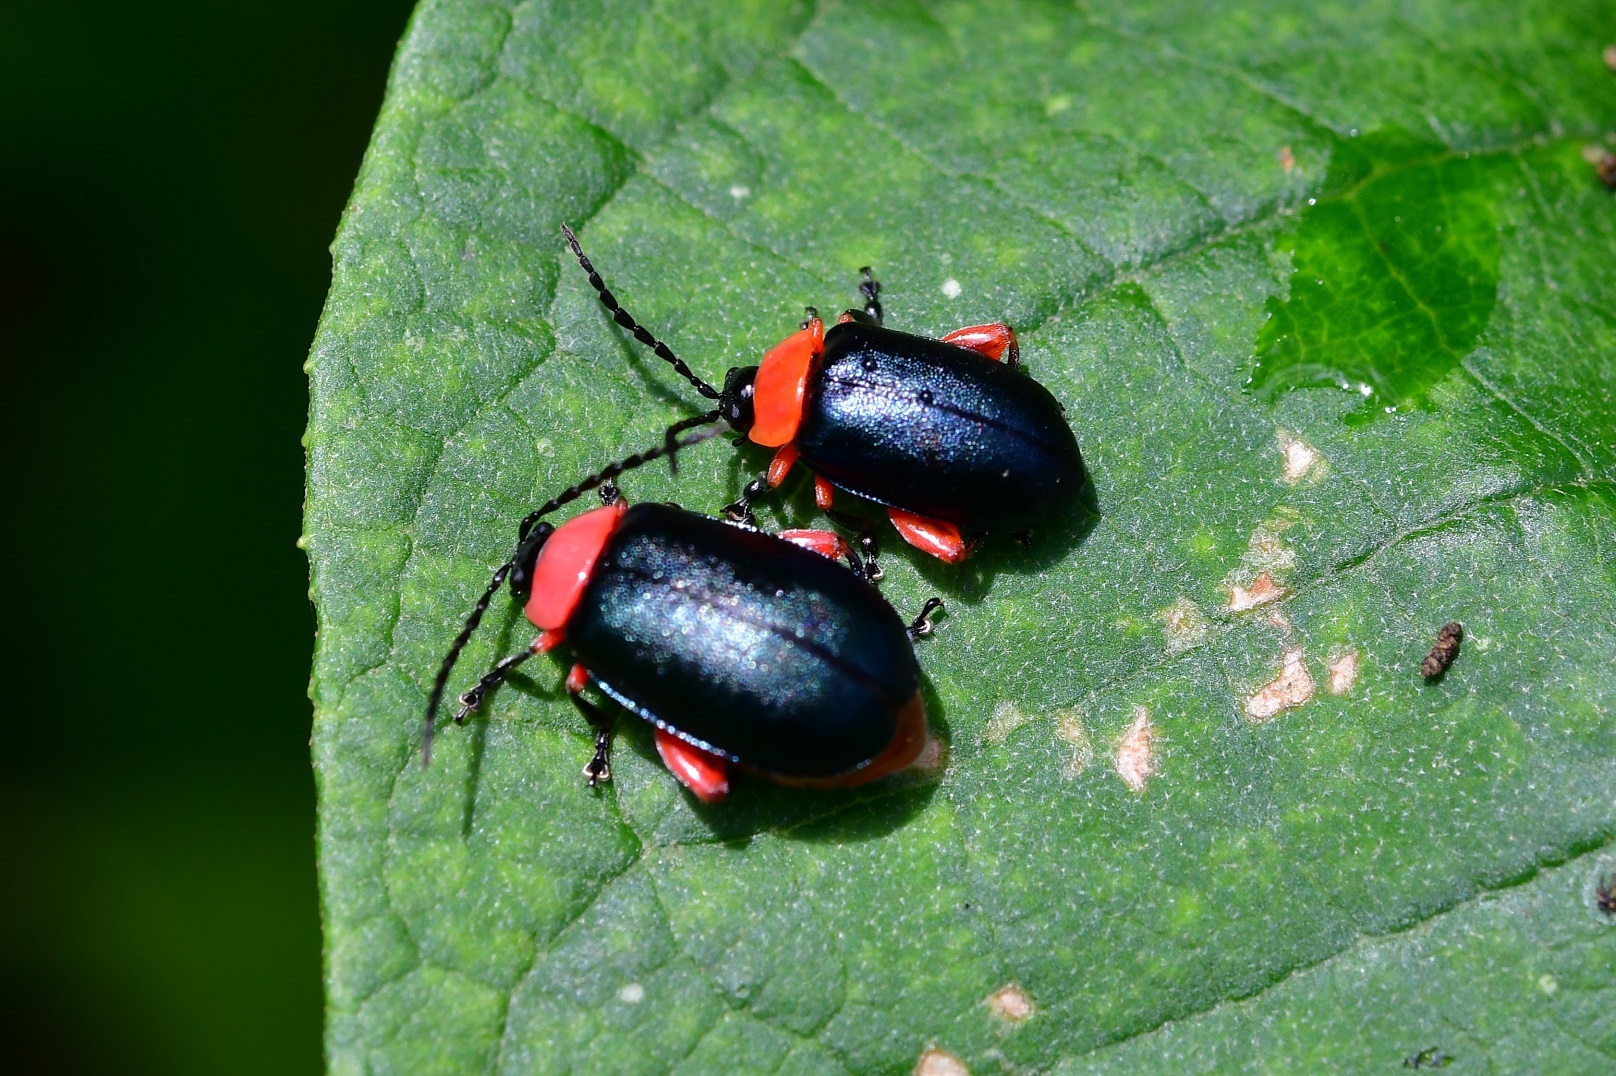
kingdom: Animalia
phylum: Arthropoda
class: Insecta
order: Coleoptera
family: Chrysomelidae
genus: Asphaera
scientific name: Asphaera abdominalis
